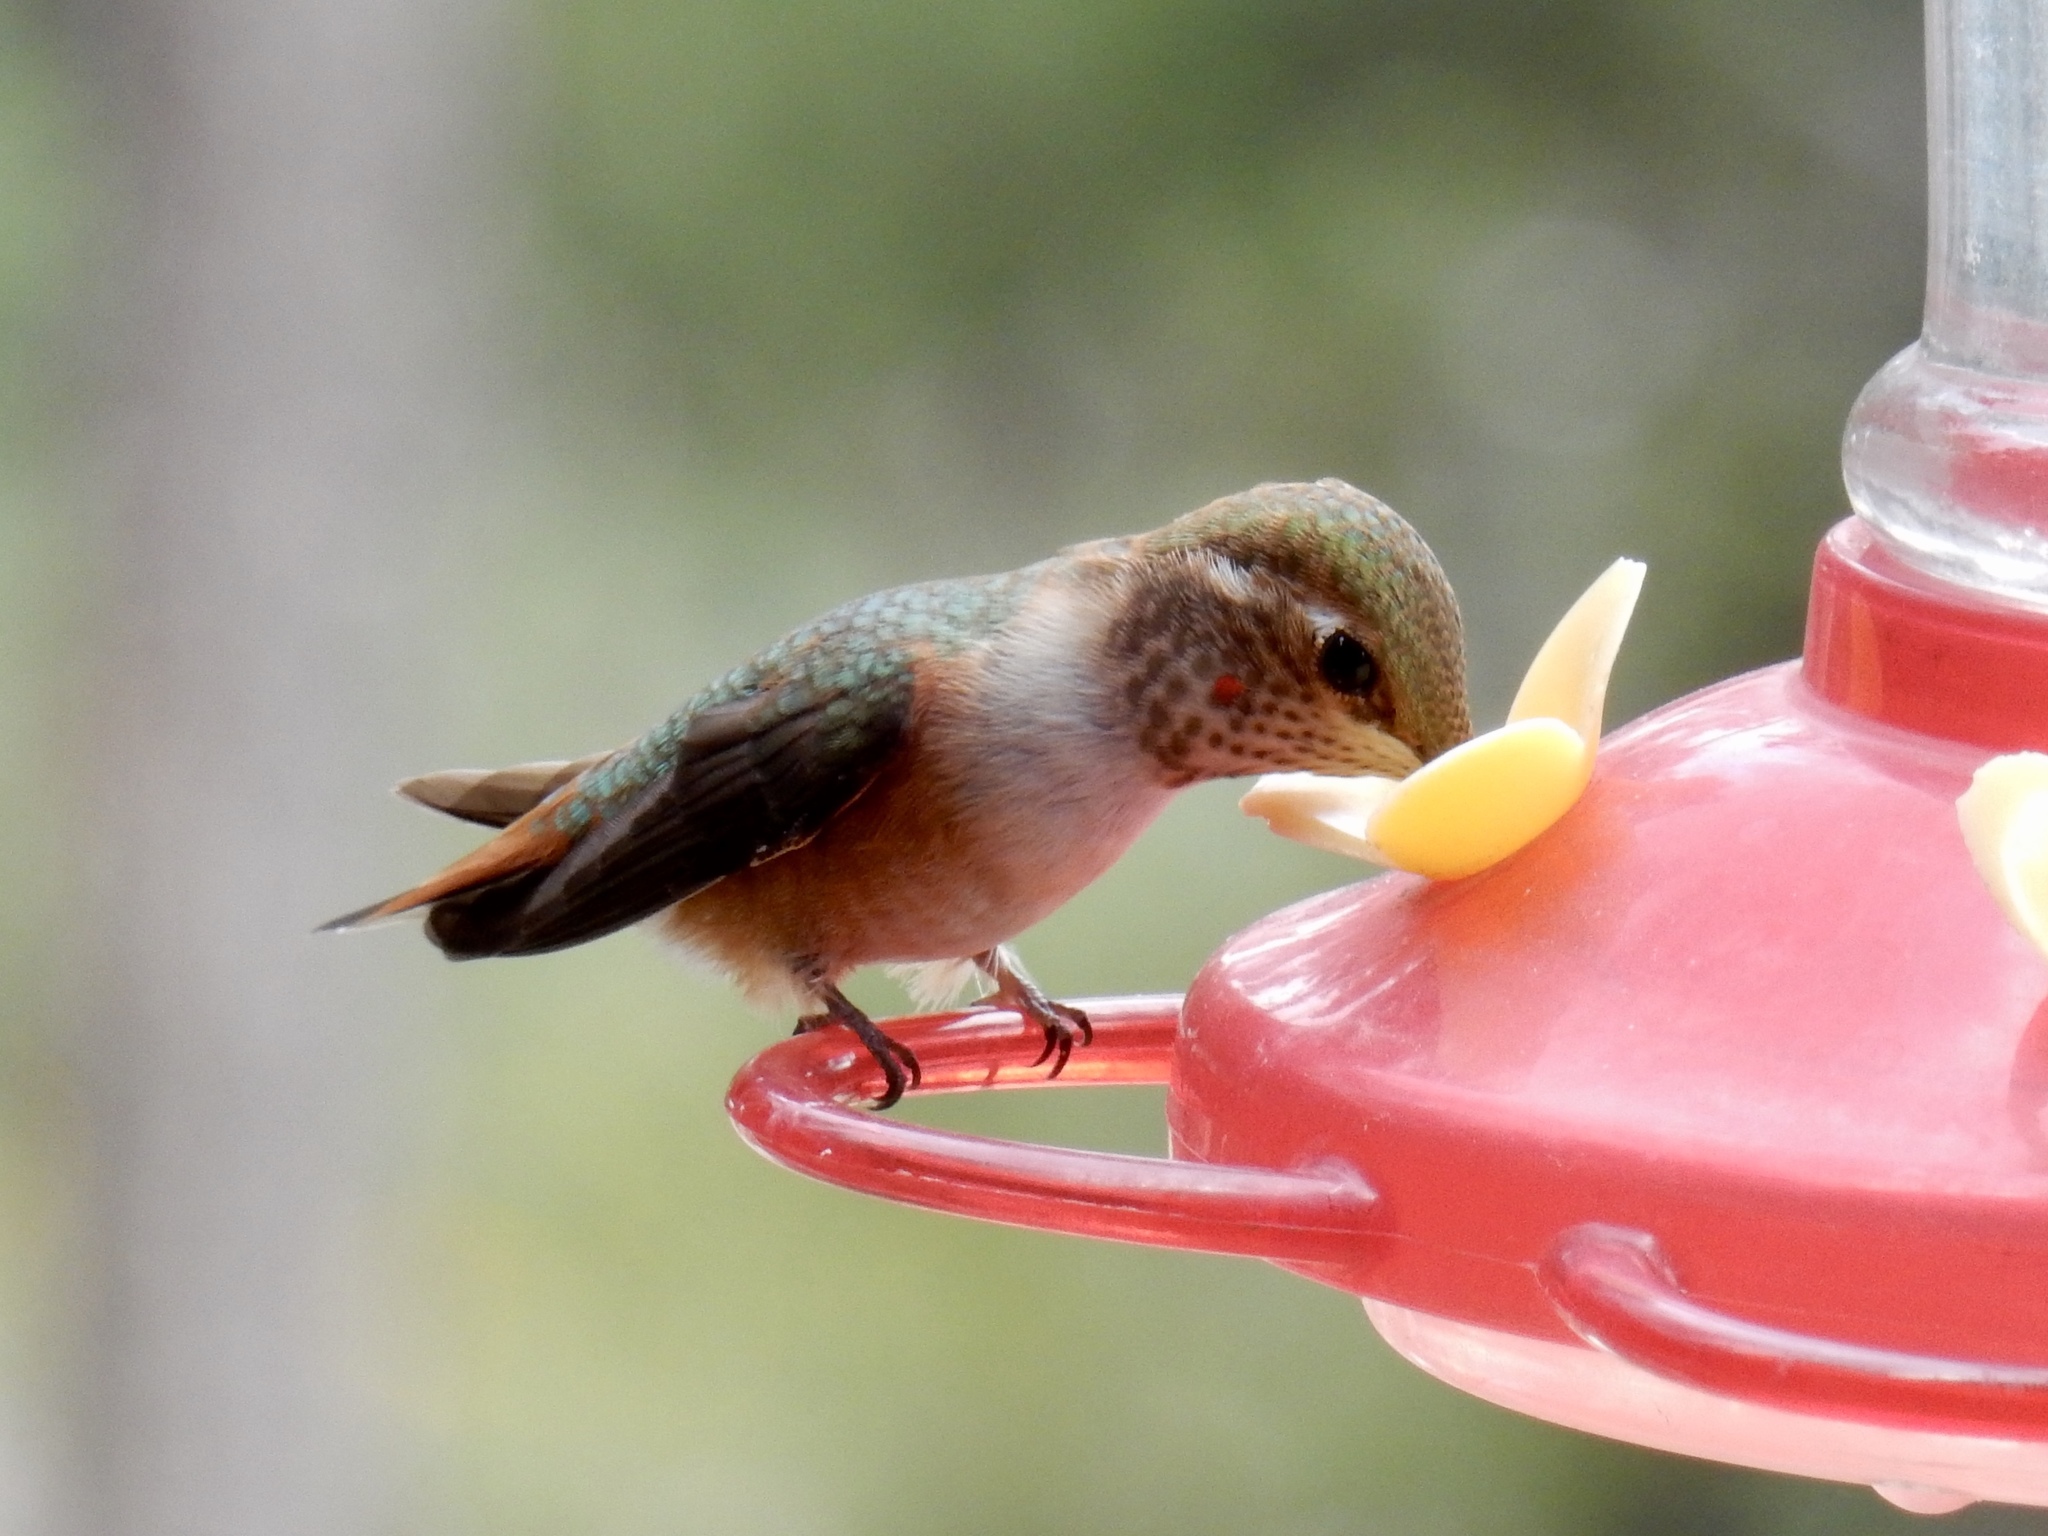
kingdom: Animalia
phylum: Chordata
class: Aves
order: Apodiformes
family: Trochilidae
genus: Selasphorus
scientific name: Selasphorus rufus
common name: Rufous hummingbird
